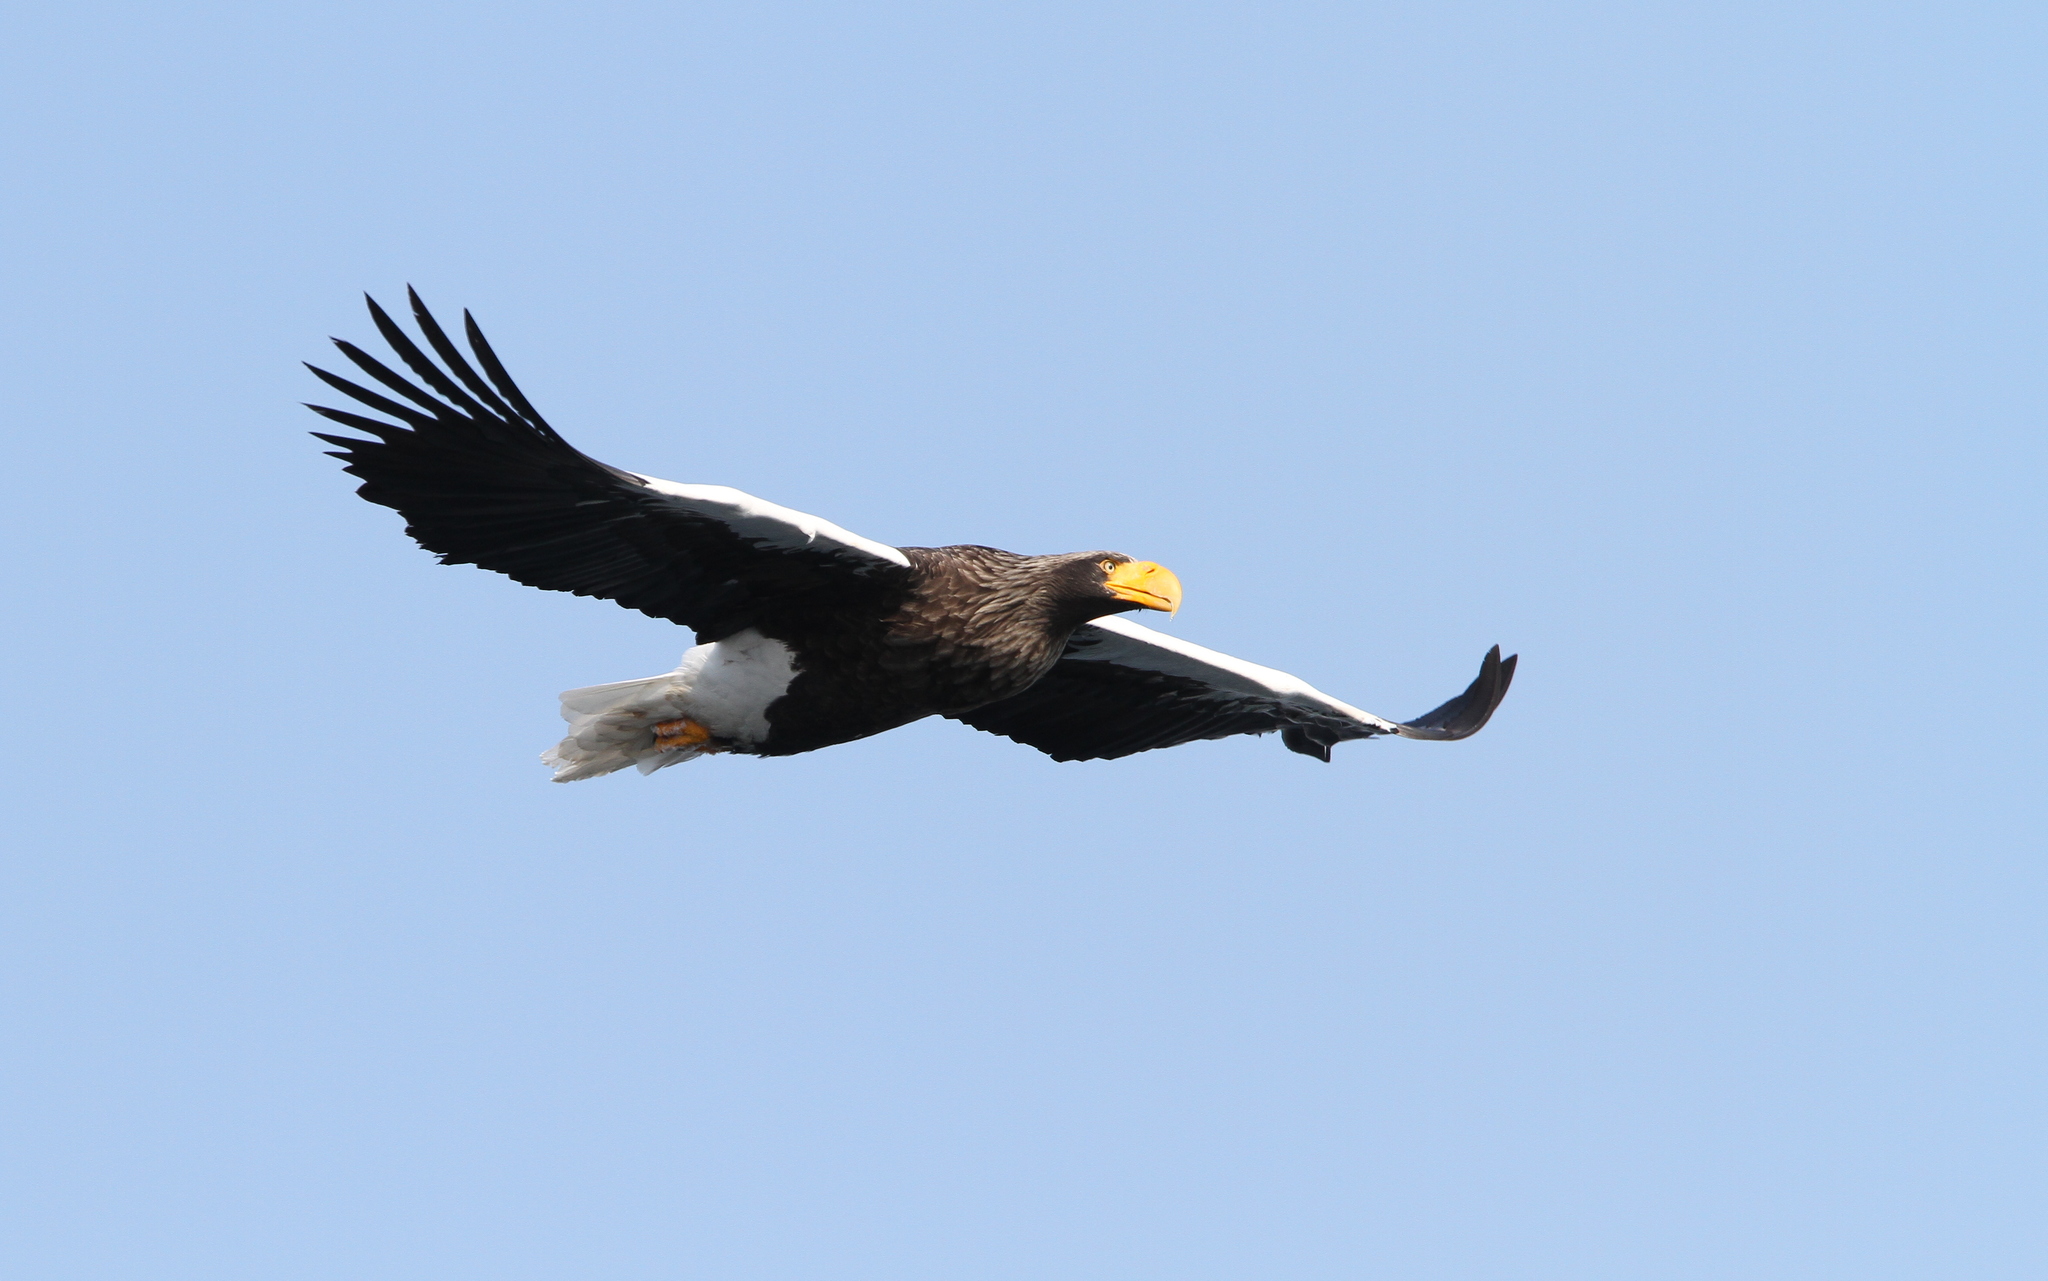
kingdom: Animalia
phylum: Chordata
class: Aves
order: Accipitriformes
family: Accipitridae
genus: Haliaeetus
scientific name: Haliaeetus pelagicus
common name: Steller's sea eagle
